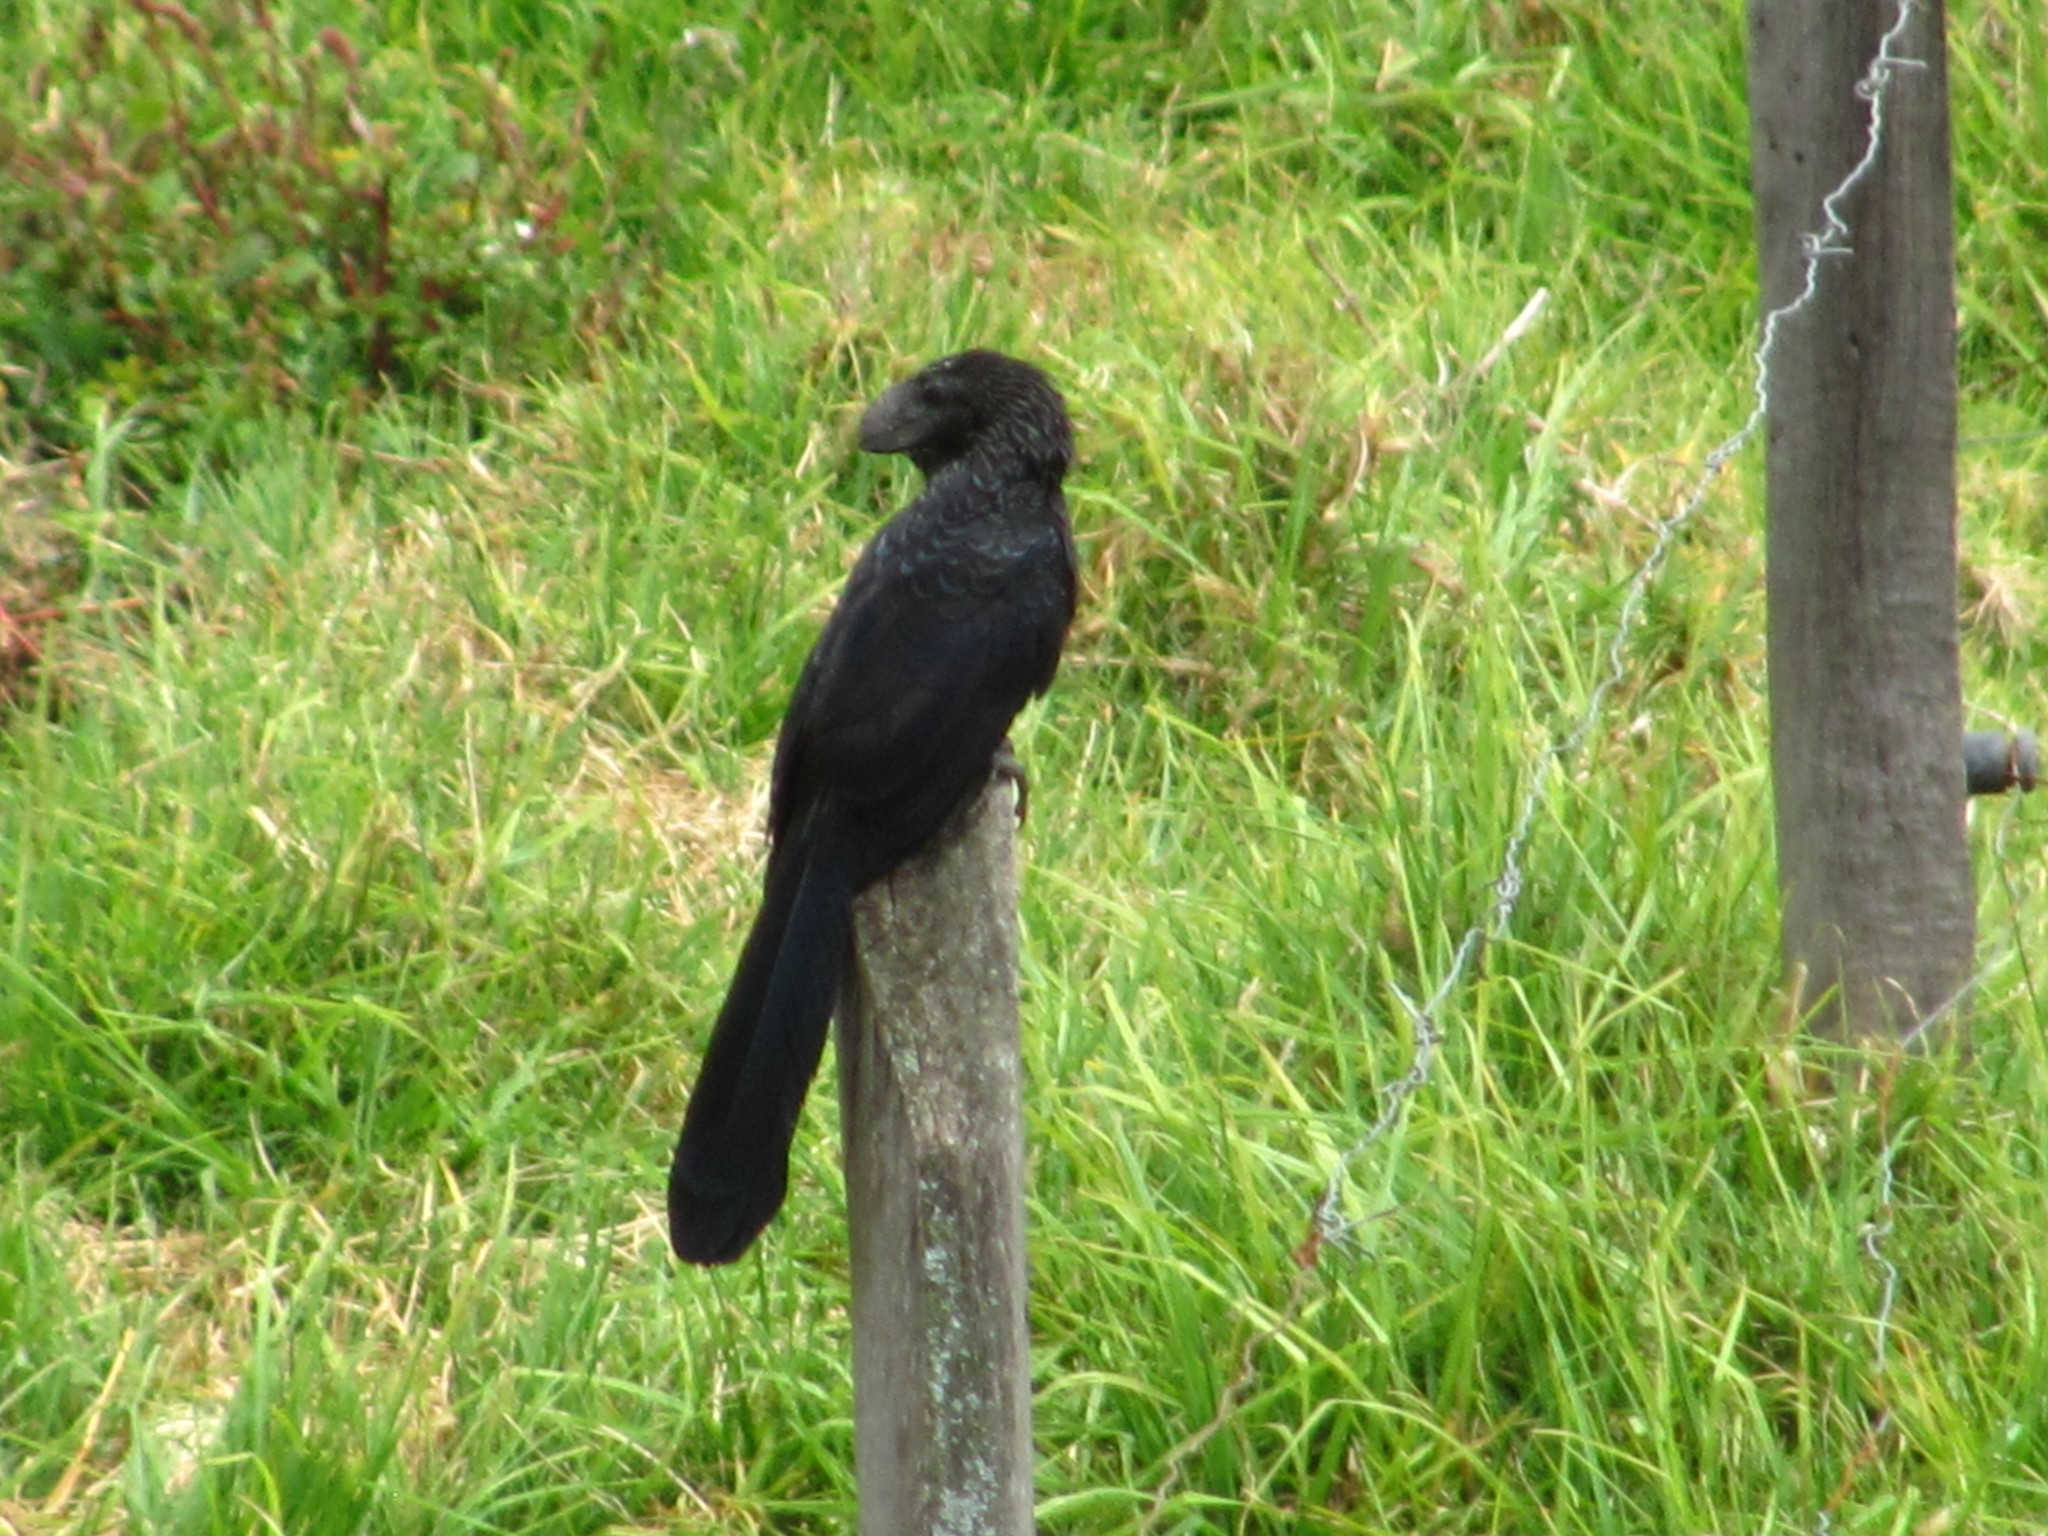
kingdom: Animalia
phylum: Chordata
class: Aves
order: Cuculiformes
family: Cuculidae
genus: Crotophaga
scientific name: Crotophaga ani
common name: Smooth-billed ani
